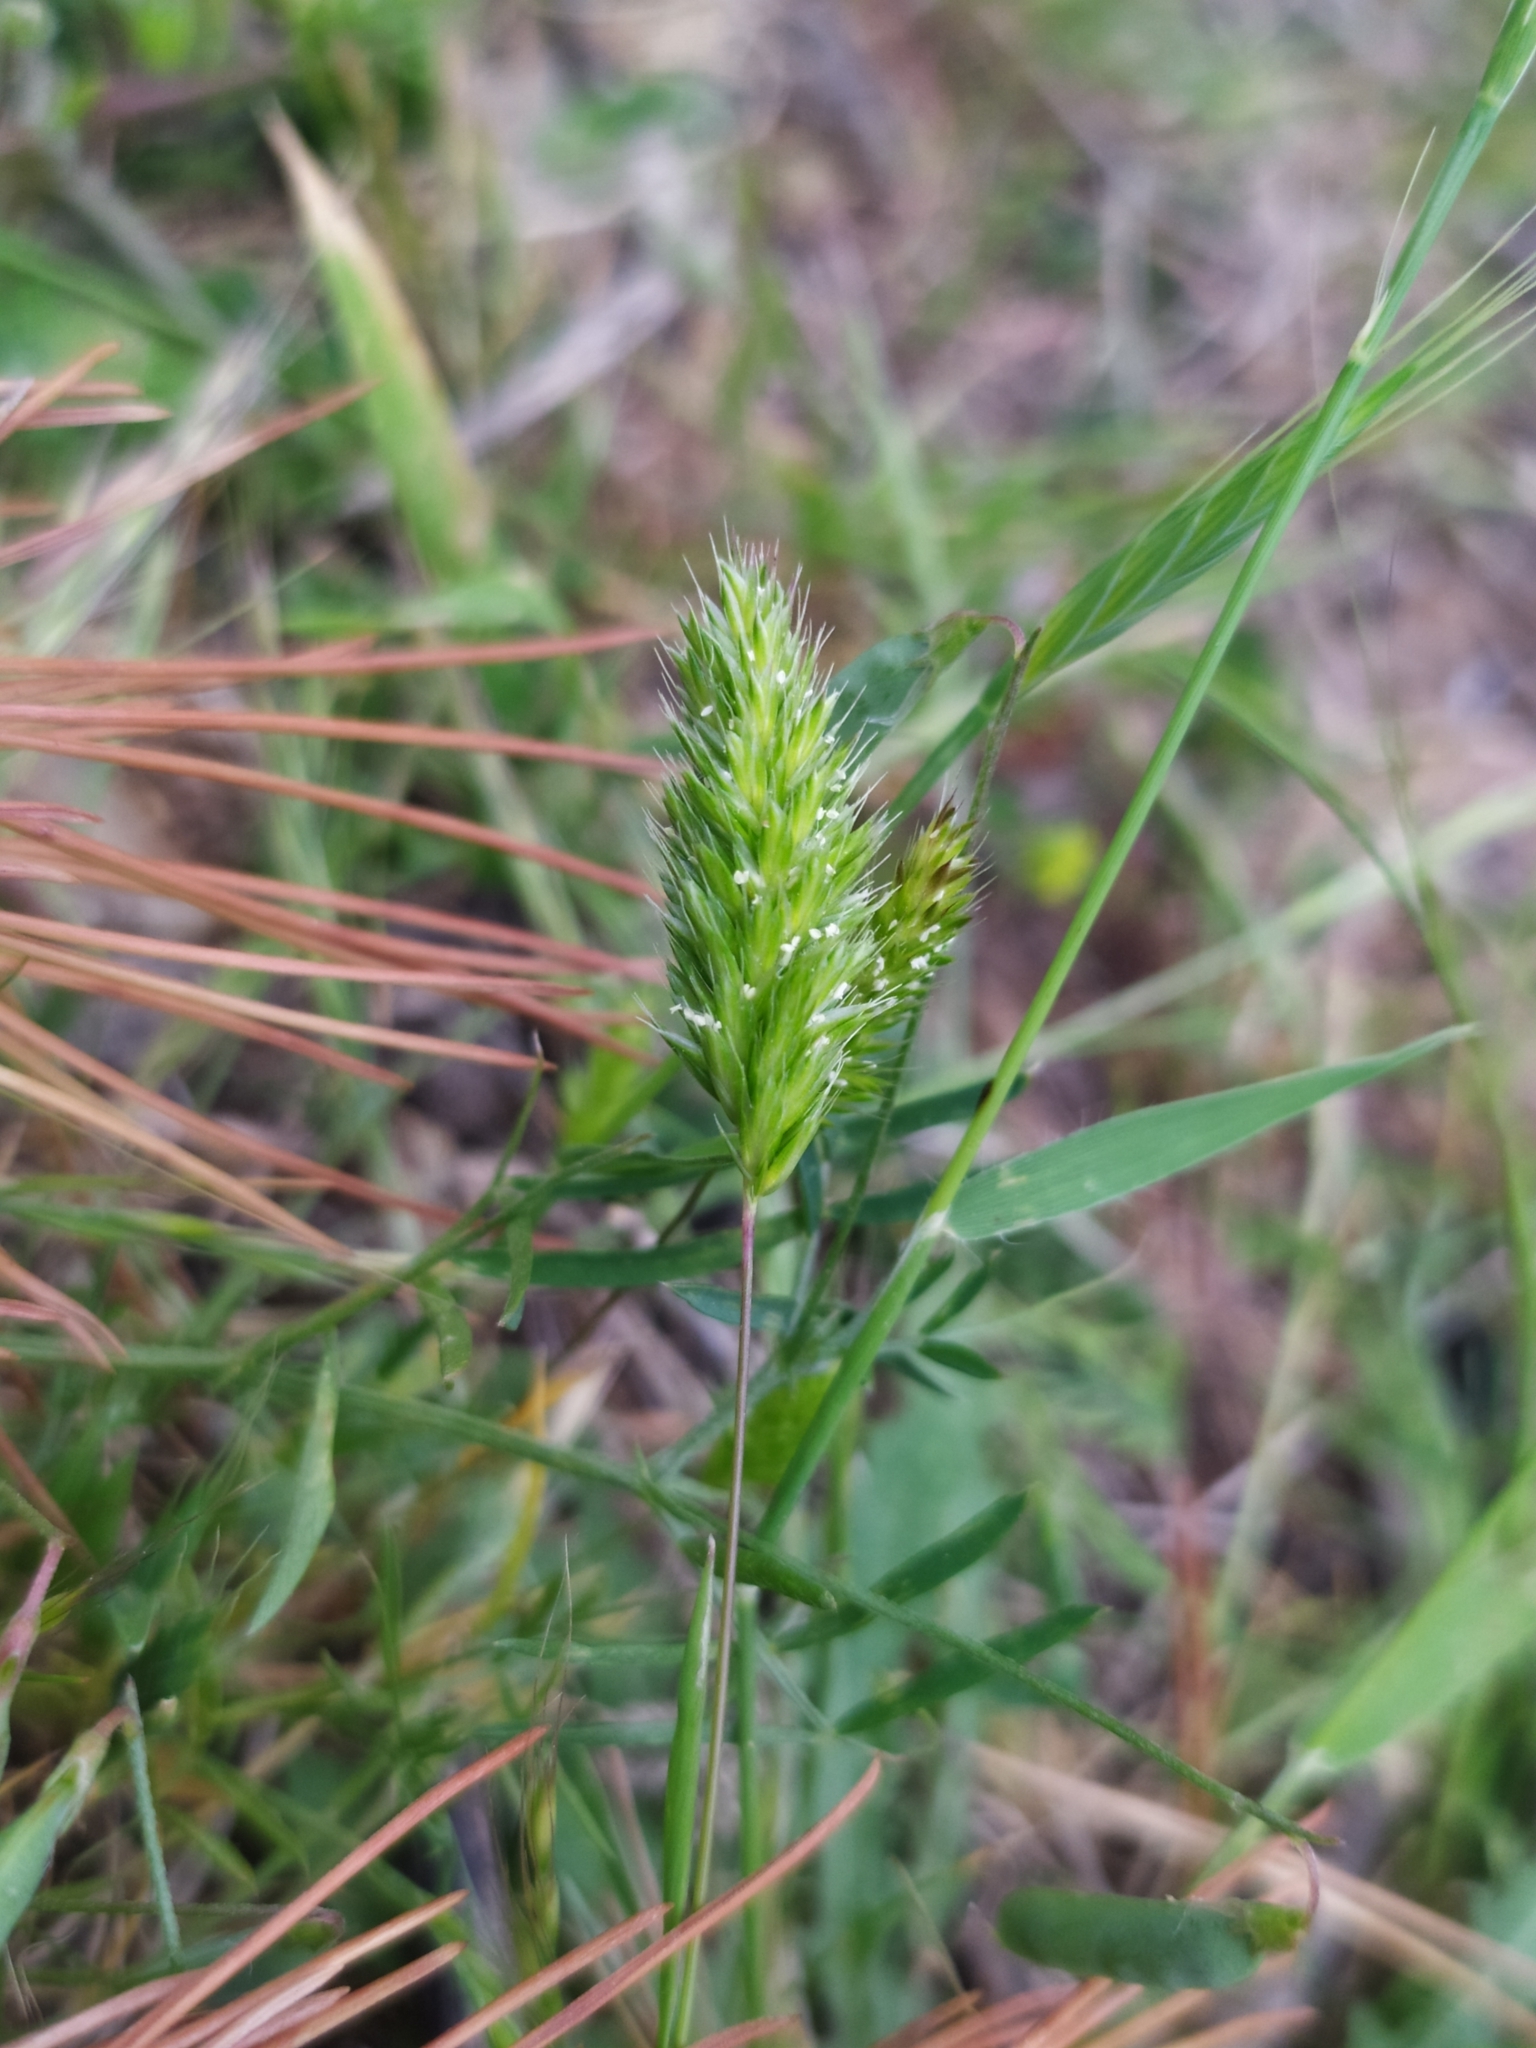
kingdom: Plantae
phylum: Tracheophyta
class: Liliopsida
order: Poales
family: Poaceae
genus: Rostraria
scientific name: Rostraria cristata
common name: Mediterranean hair-grass
